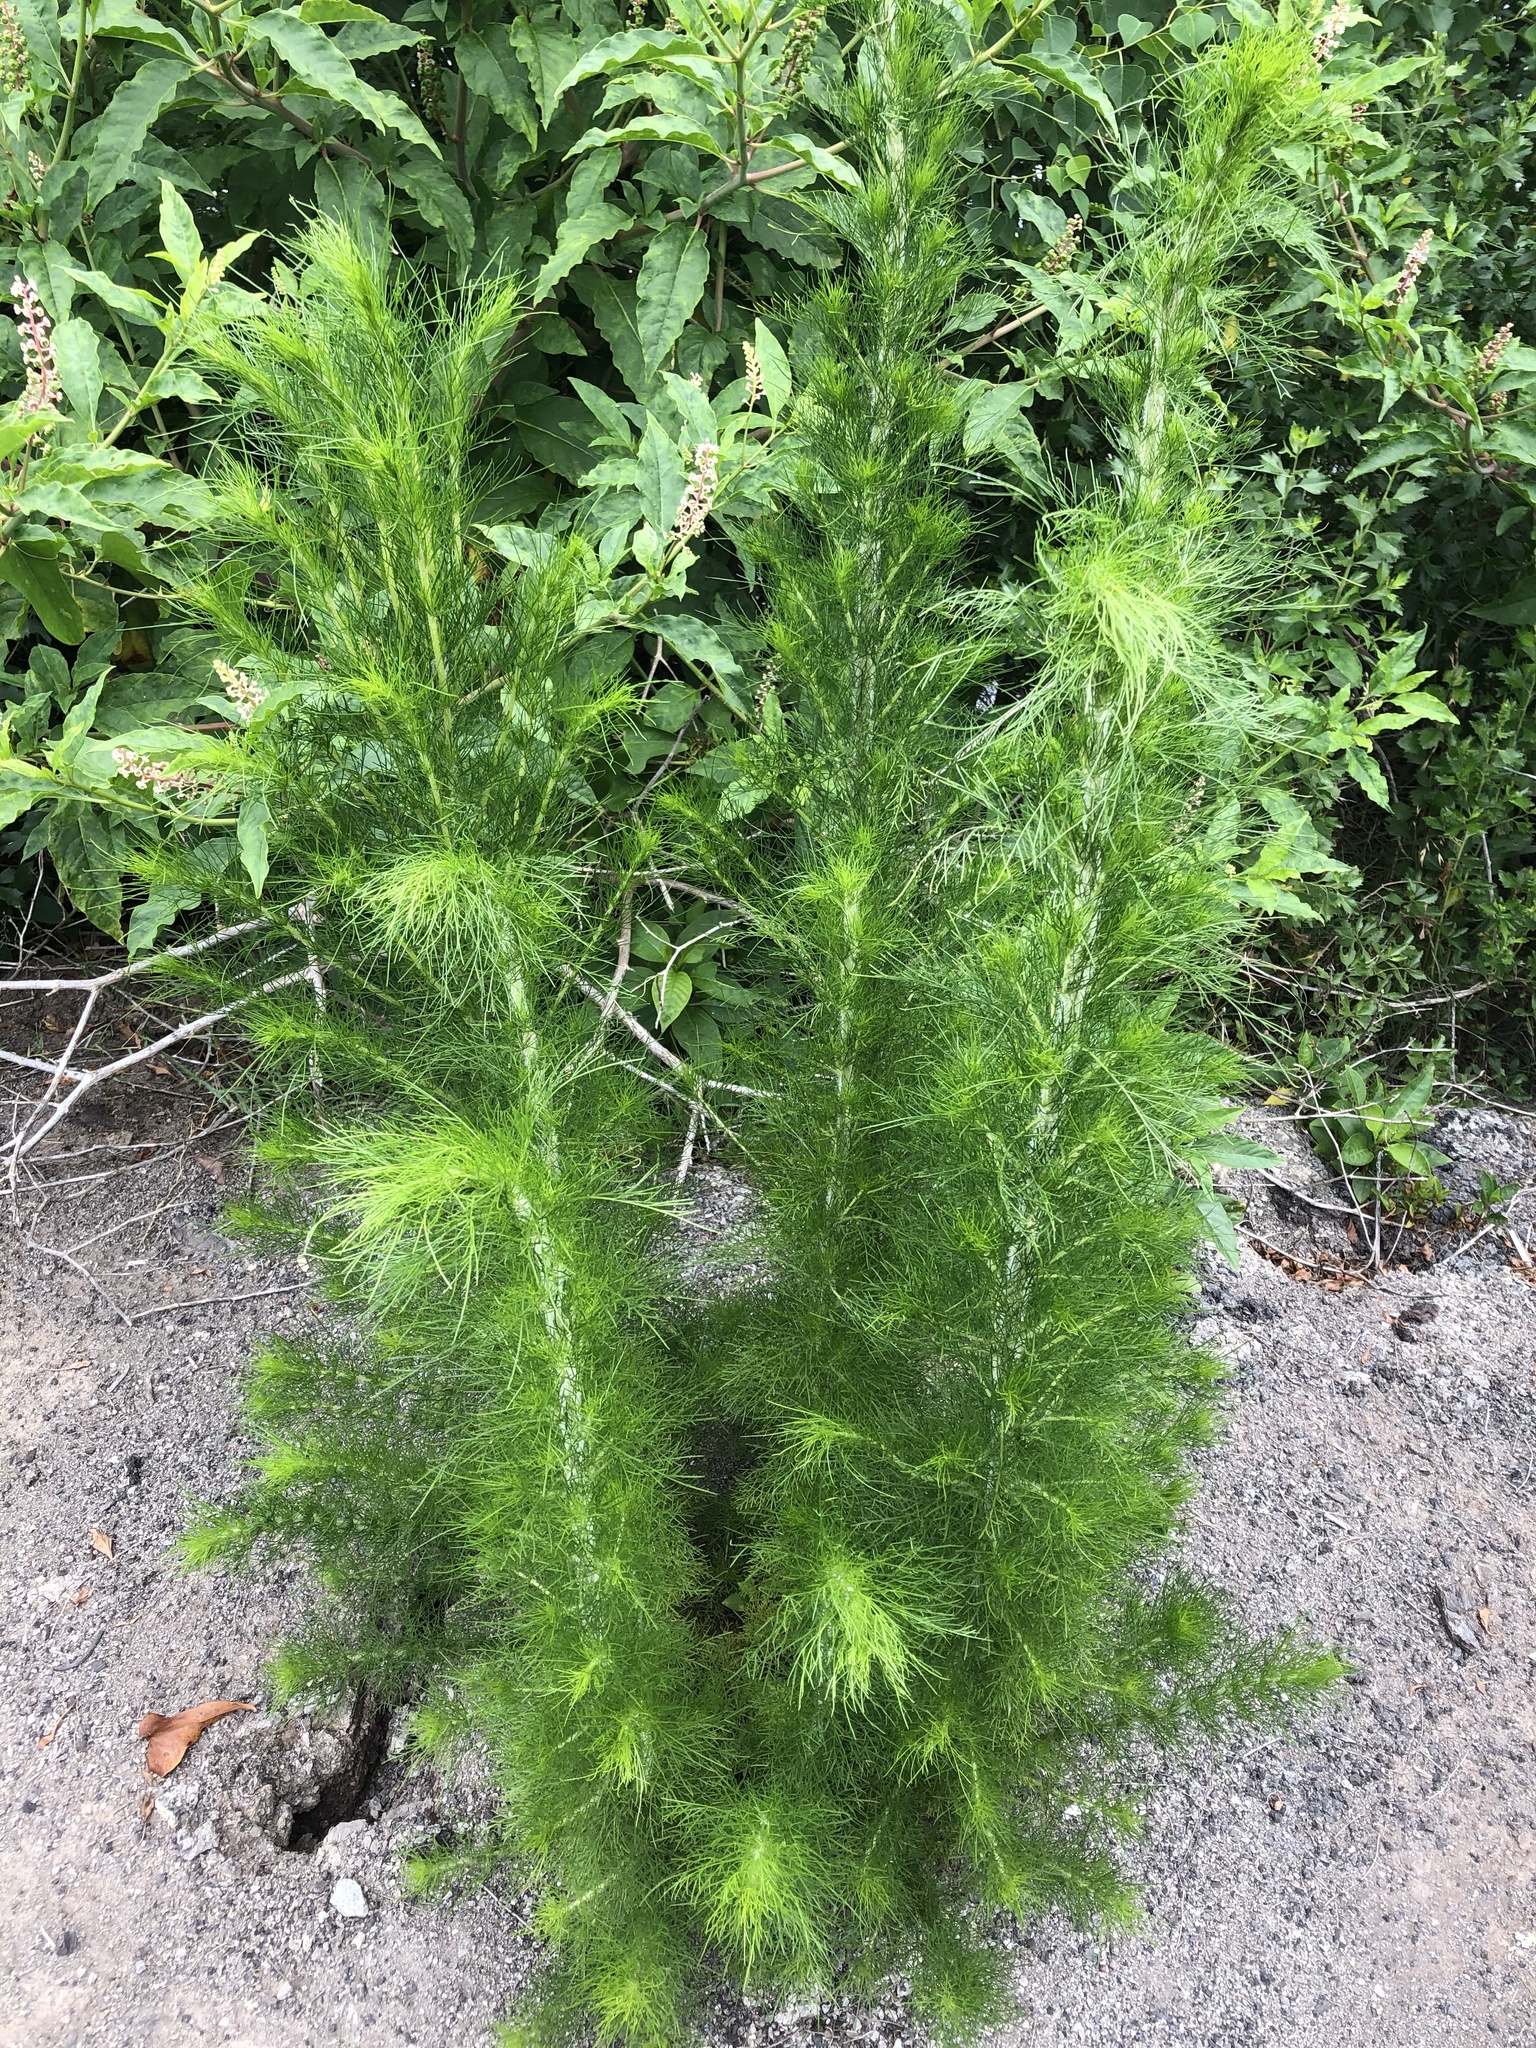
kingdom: Plantae
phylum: Tracheophyta
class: Magnoliopsida
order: Asterales
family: Asteraceae
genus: Eupatorium
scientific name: Eupatorium capillifolium
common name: Dog-fennel
